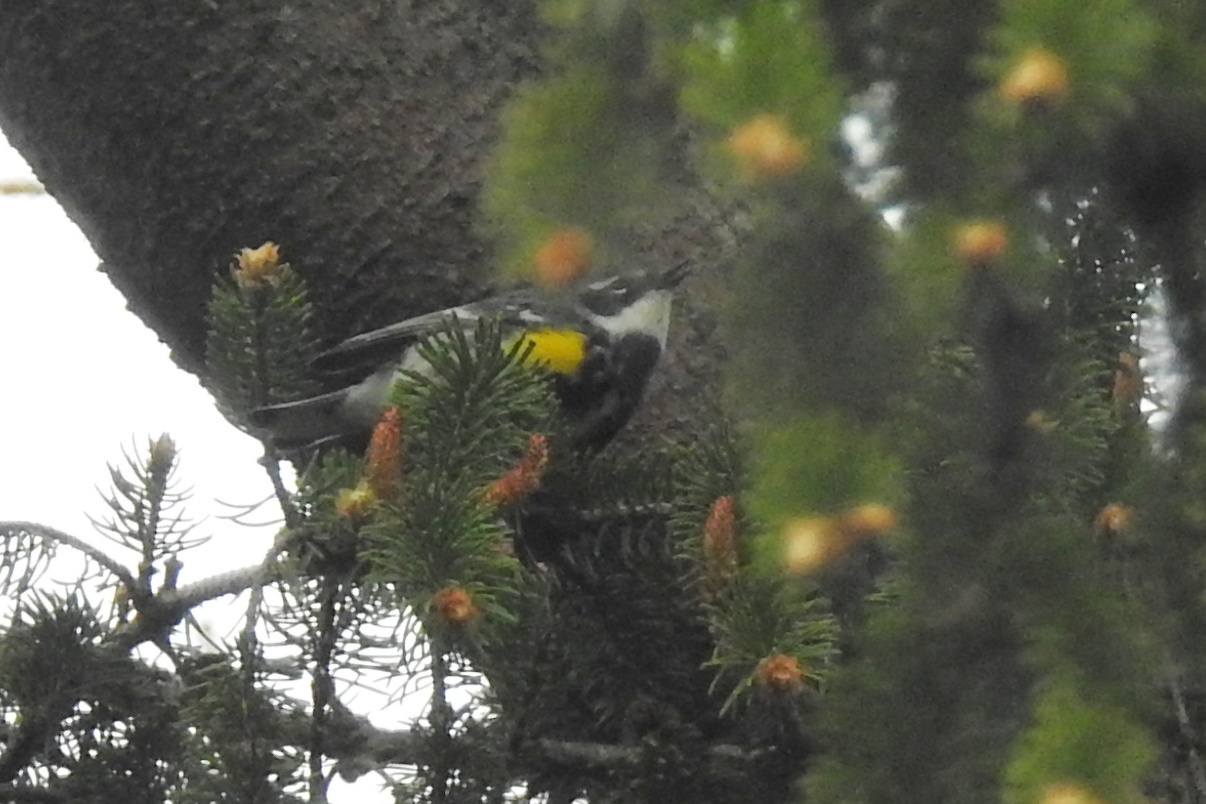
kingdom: Animalia
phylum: Chordata
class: Aves
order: Passeriformes
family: Parulidae
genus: Setophaga
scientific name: Setophaga coronata
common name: Myrtle warbler
